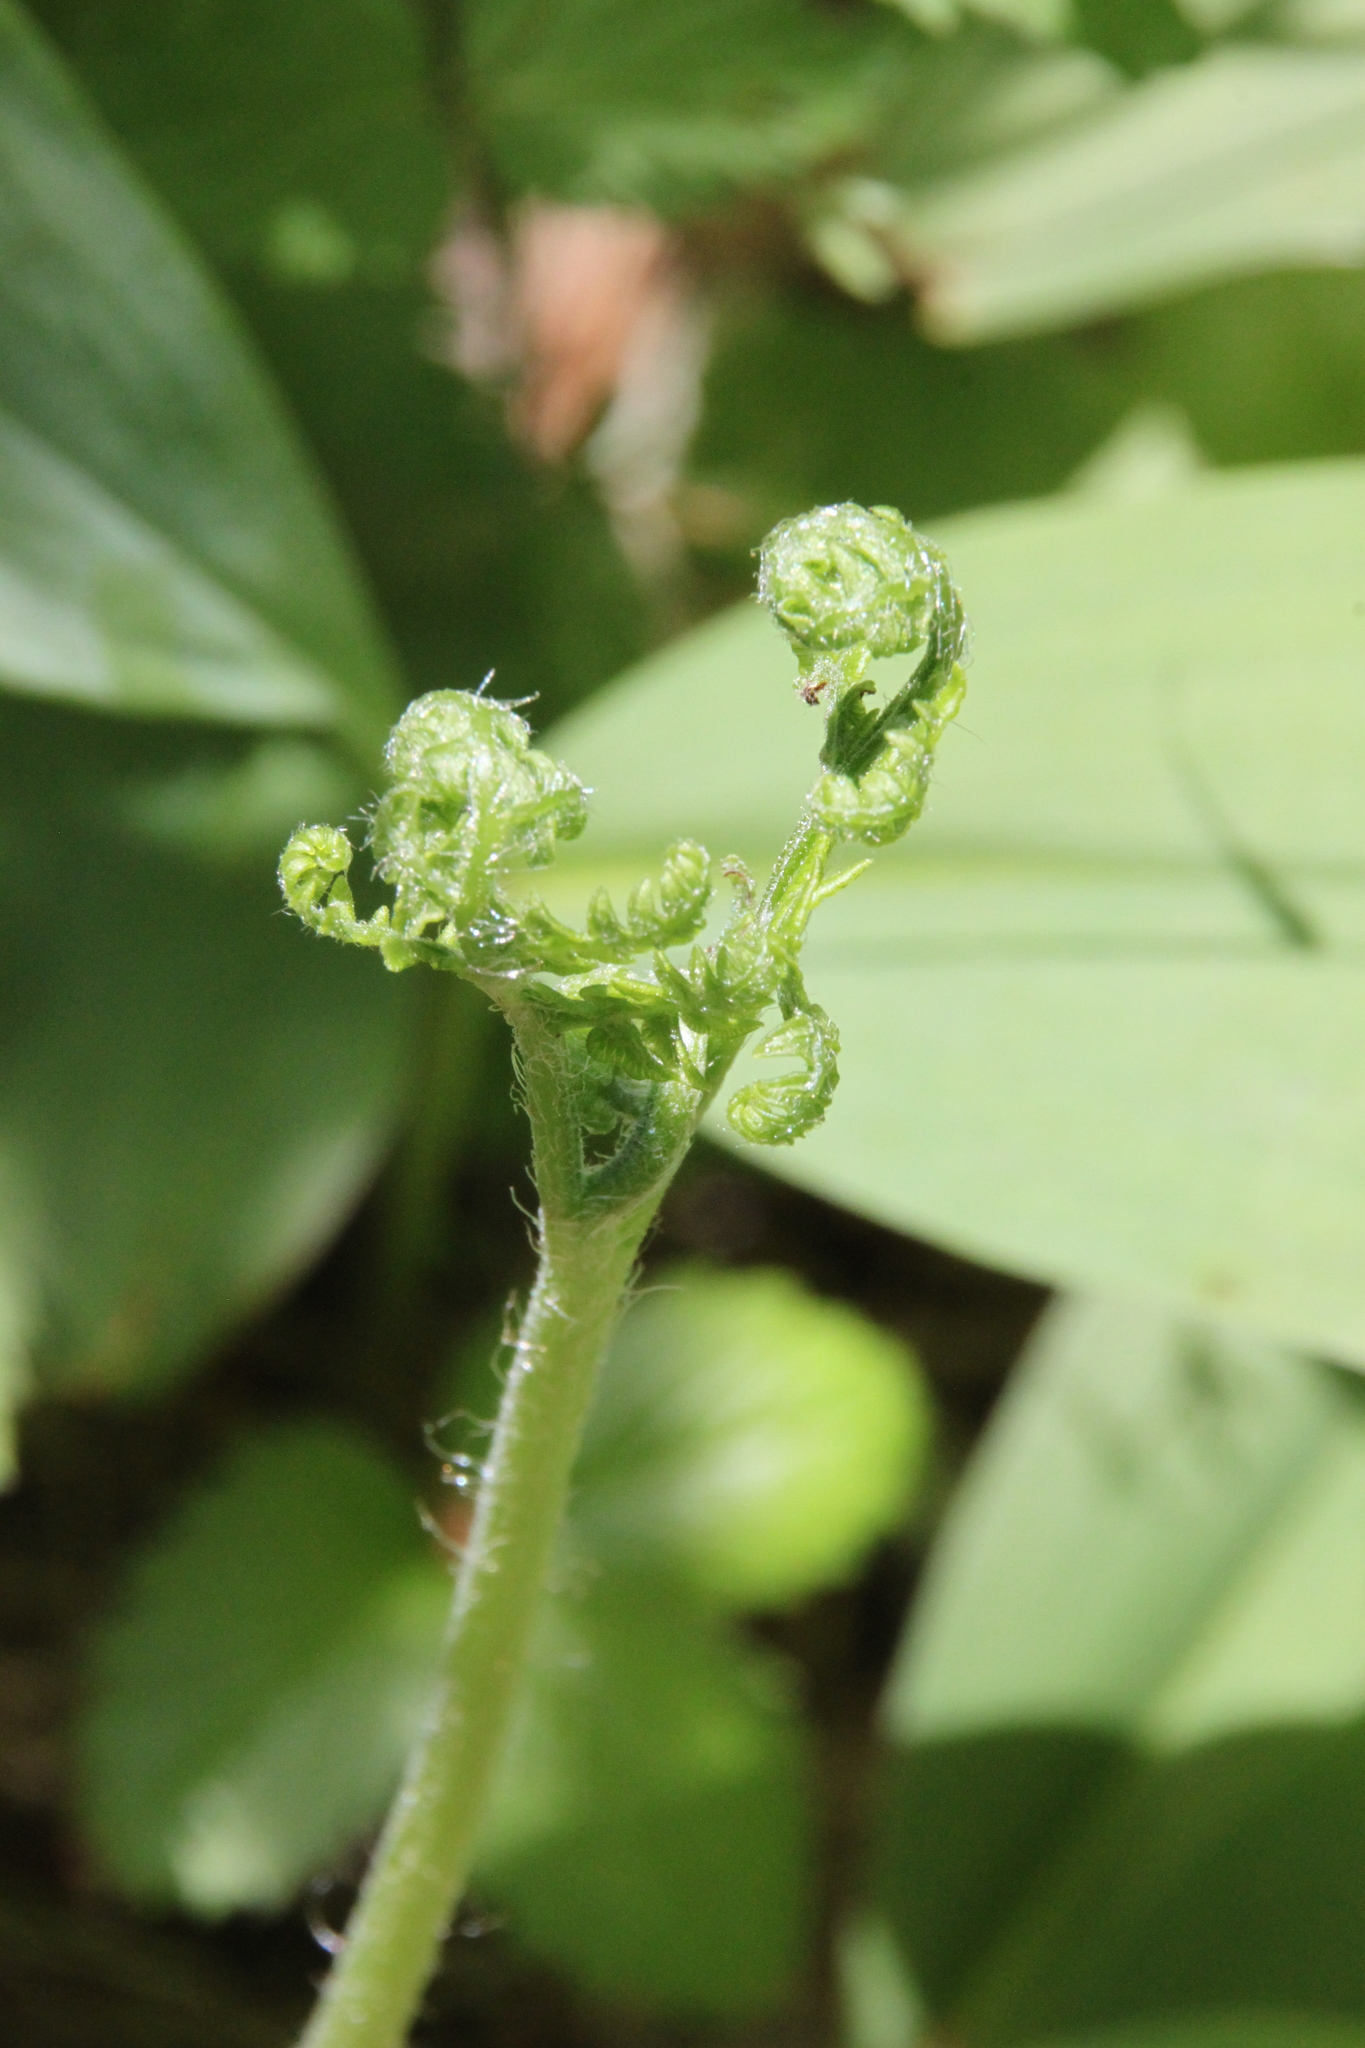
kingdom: Plantae
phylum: Tracheophyta
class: Polypodiopsida
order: Polypodiales
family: Dennstaedtiaceae
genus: Pteridium
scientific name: Pteridium aquilinum
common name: Bracken
